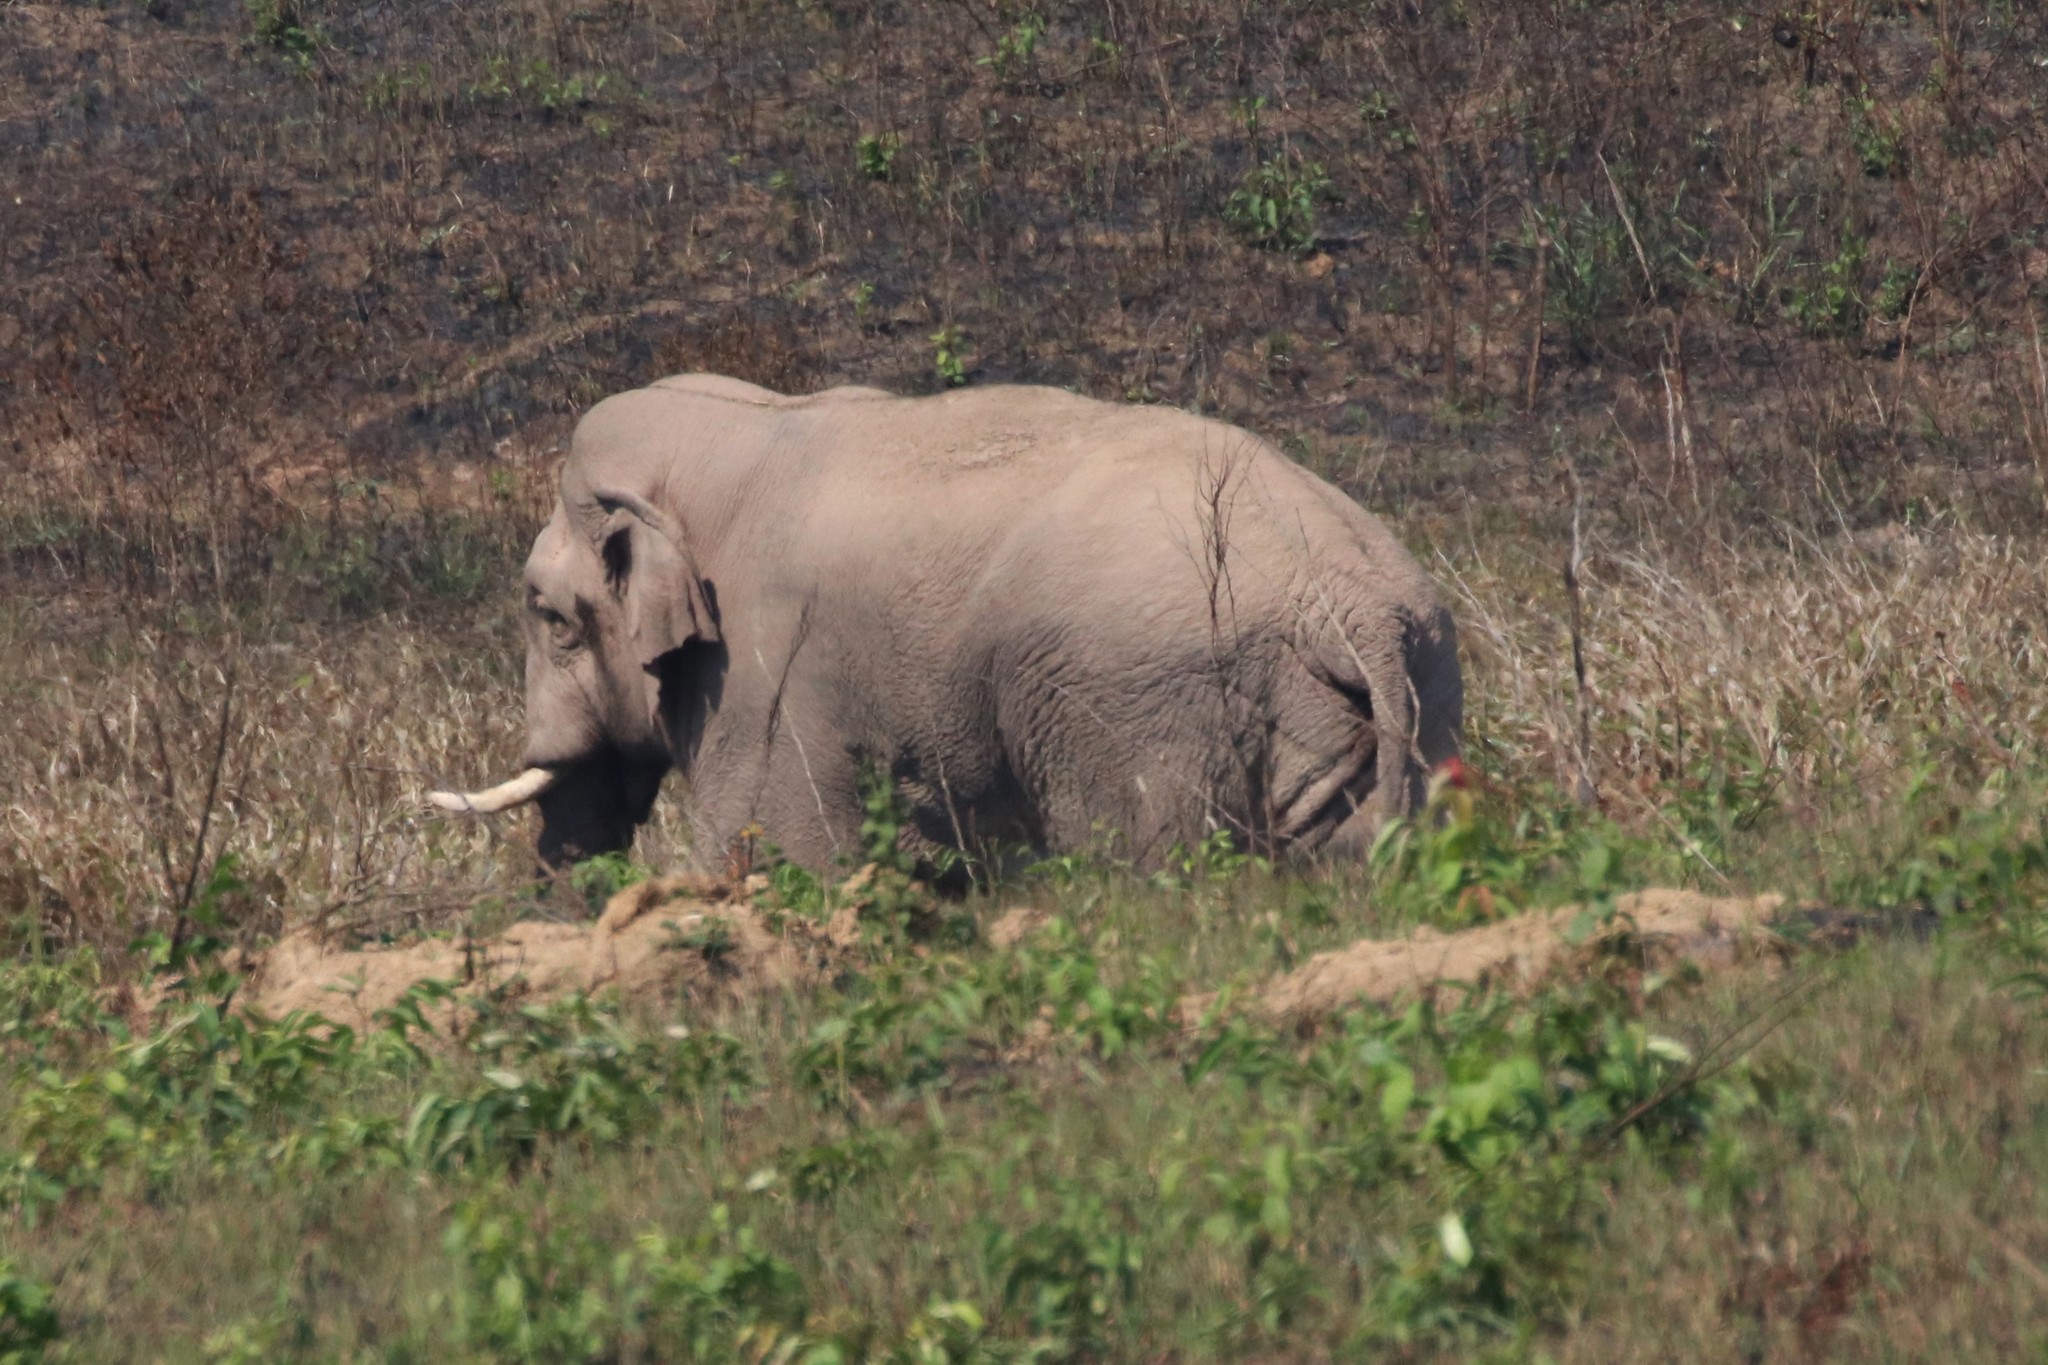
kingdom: Animalia
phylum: Chordata
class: Mammalia
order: Proboscidea
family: Elephantidae
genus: Elephas
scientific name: Elephas maximus
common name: Asian elephant
